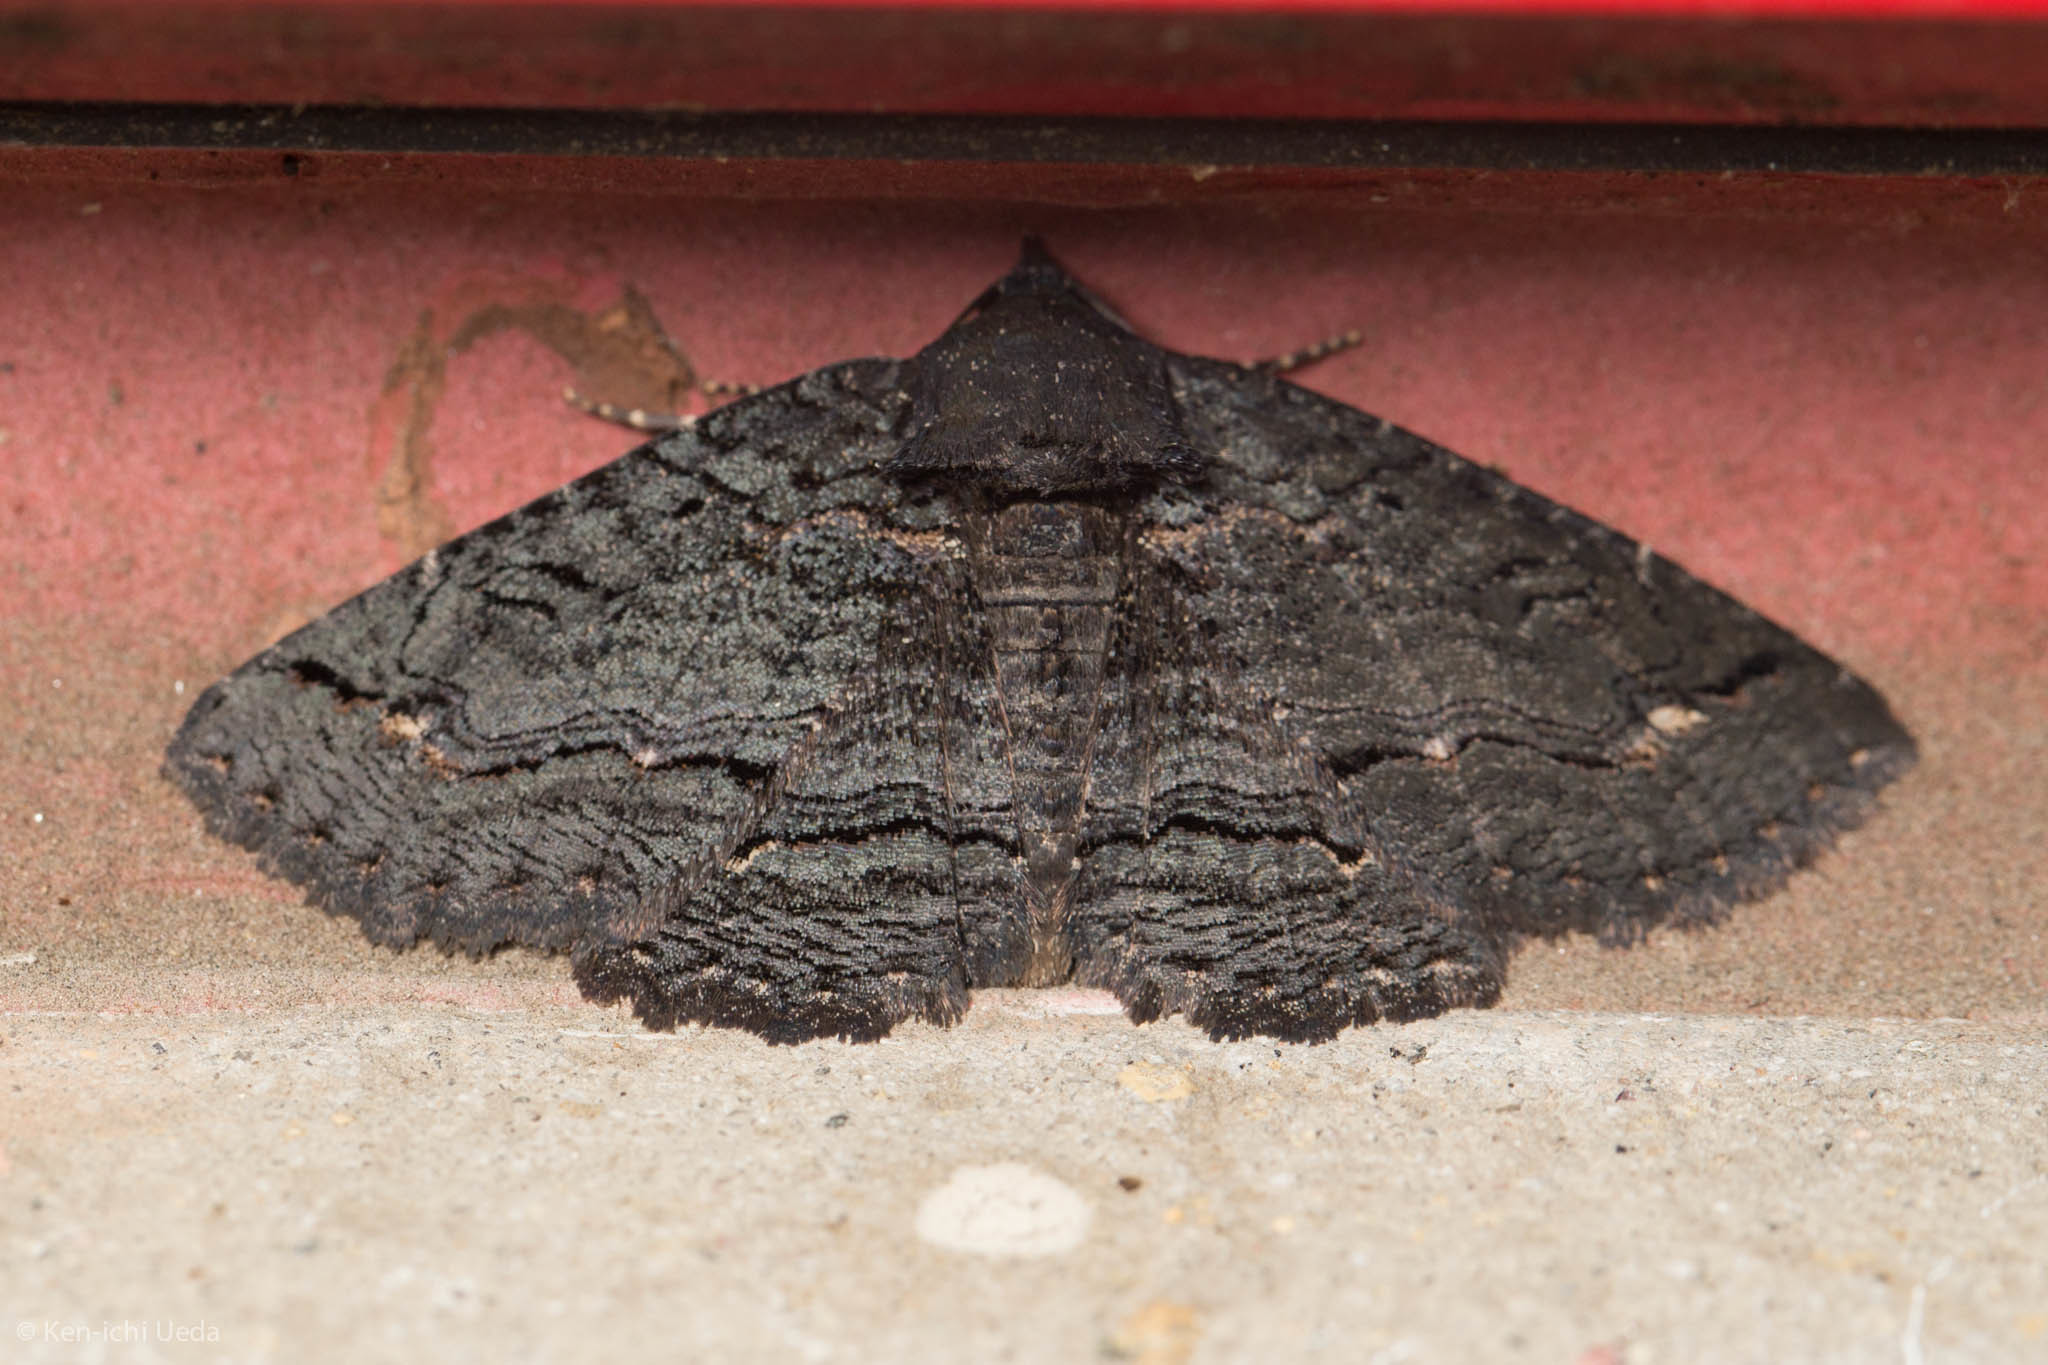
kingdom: Animalia
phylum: Arthropoda
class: Insecta
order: Lepidoptera
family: Erebidae
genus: Zale
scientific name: Zale undularis
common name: Black zale moth
